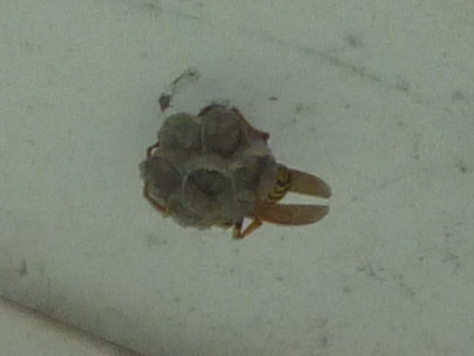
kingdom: Animalia
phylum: Arthropoda
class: Insecta
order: Hymenoptera
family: Eumenidae
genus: Polistes
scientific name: Polistes dominula
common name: Paper wasp
